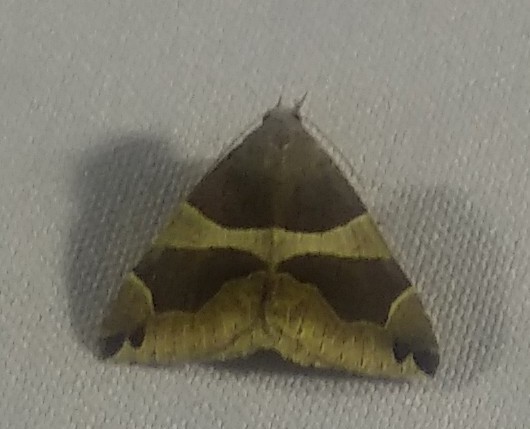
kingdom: Animalia
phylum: Arthropoda
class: Insecta
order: Lepidoptera
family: Erebidae
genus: Dysgonia
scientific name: Dysgonia algira
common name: Passenger
